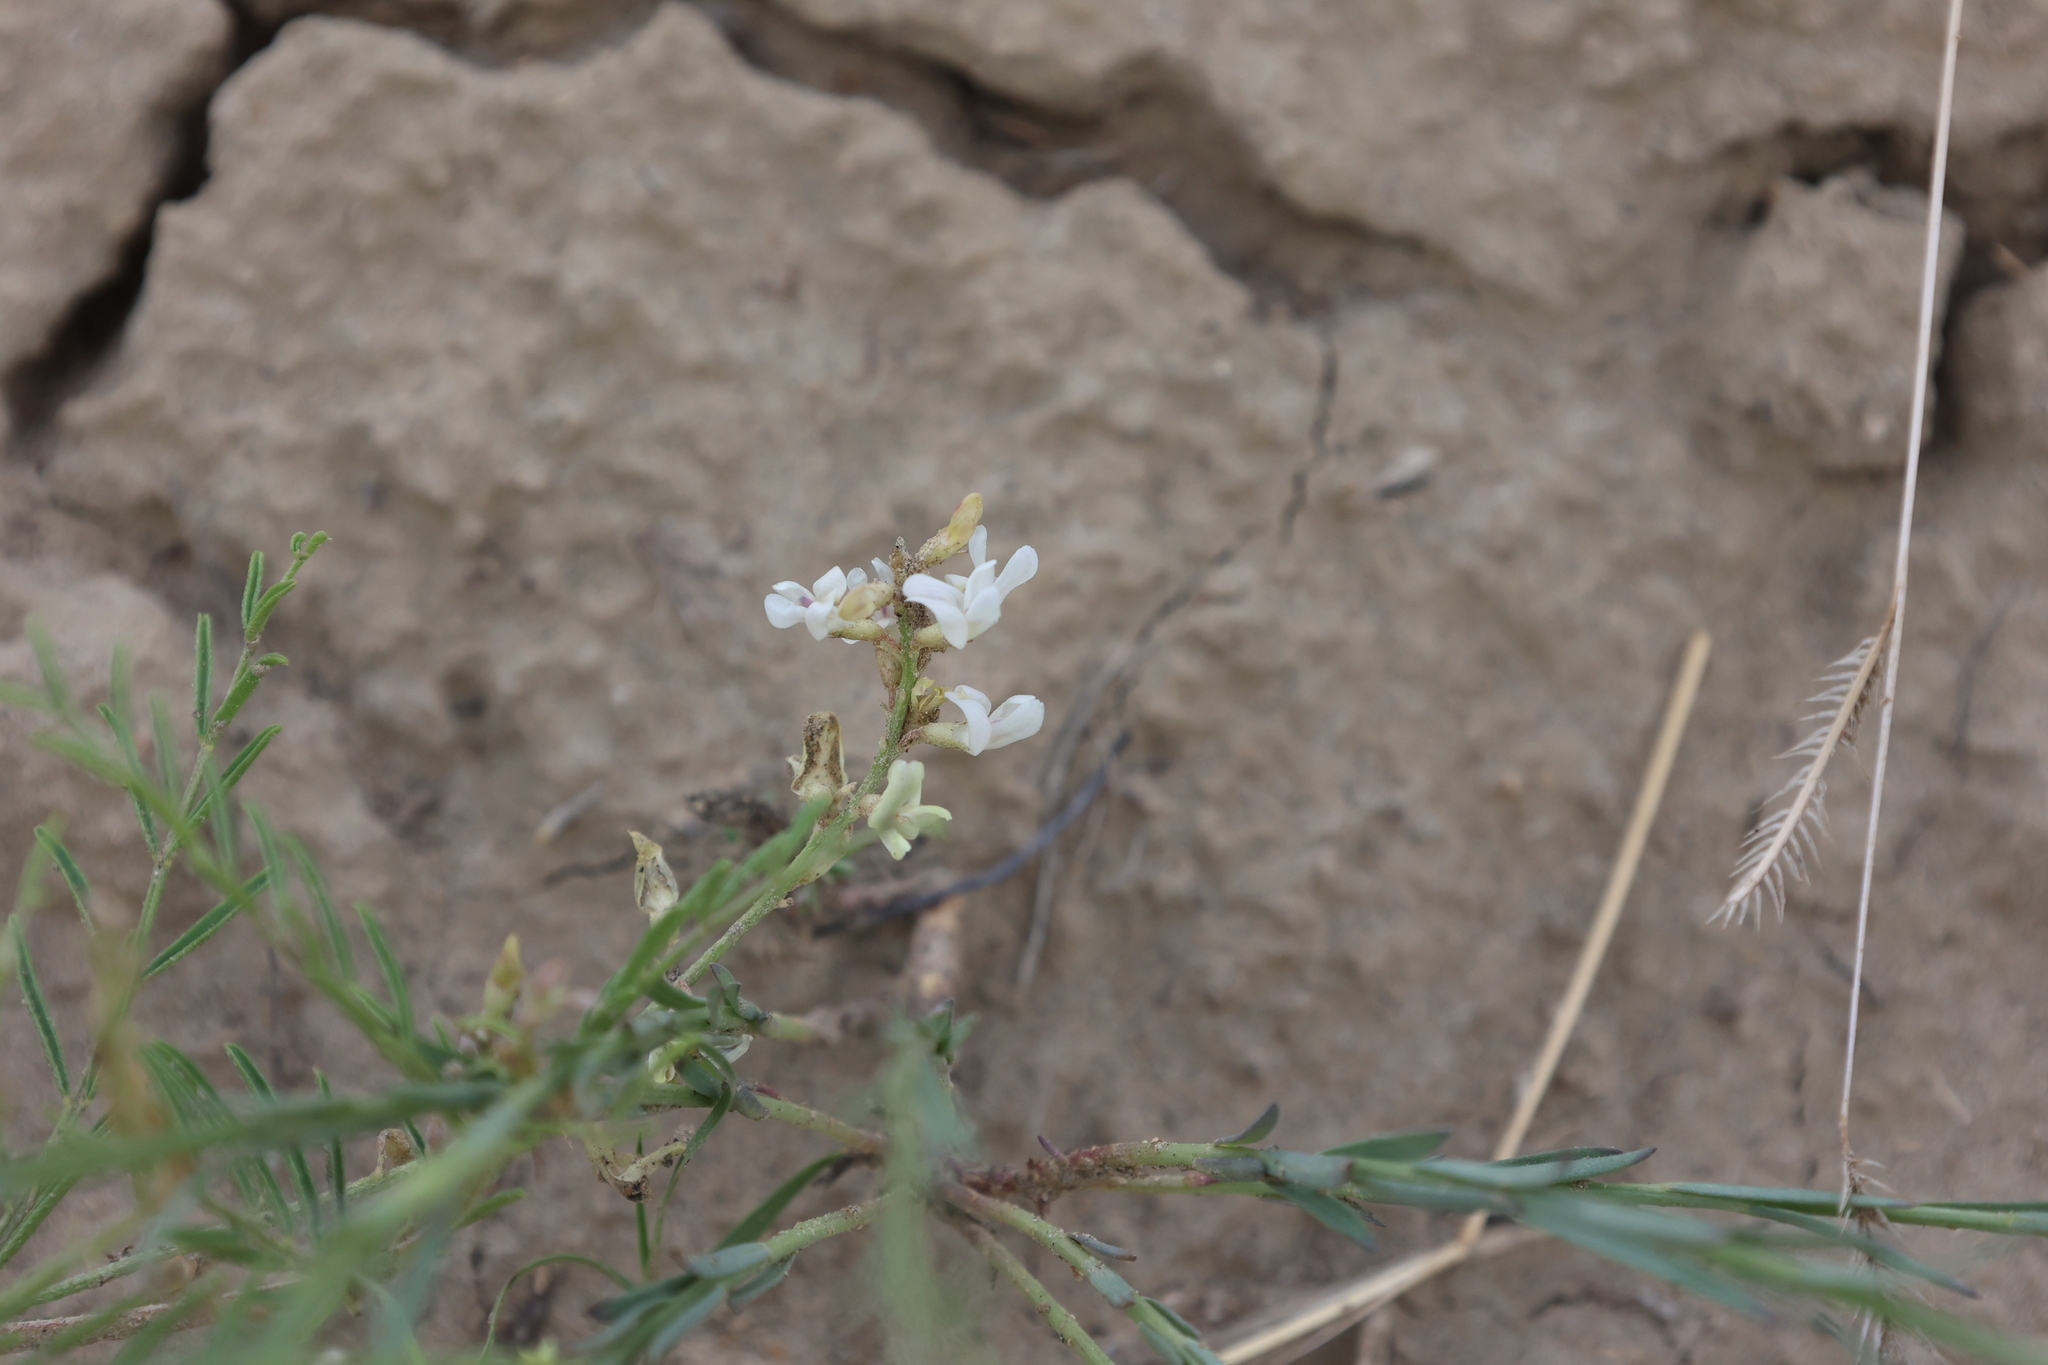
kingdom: Plantae
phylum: Tracheophyta
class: Magnoliopsida
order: Fabales
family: Fabaceae
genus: Astragalus
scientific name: Astragalus tenellus
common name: Pulse milk-vetch
